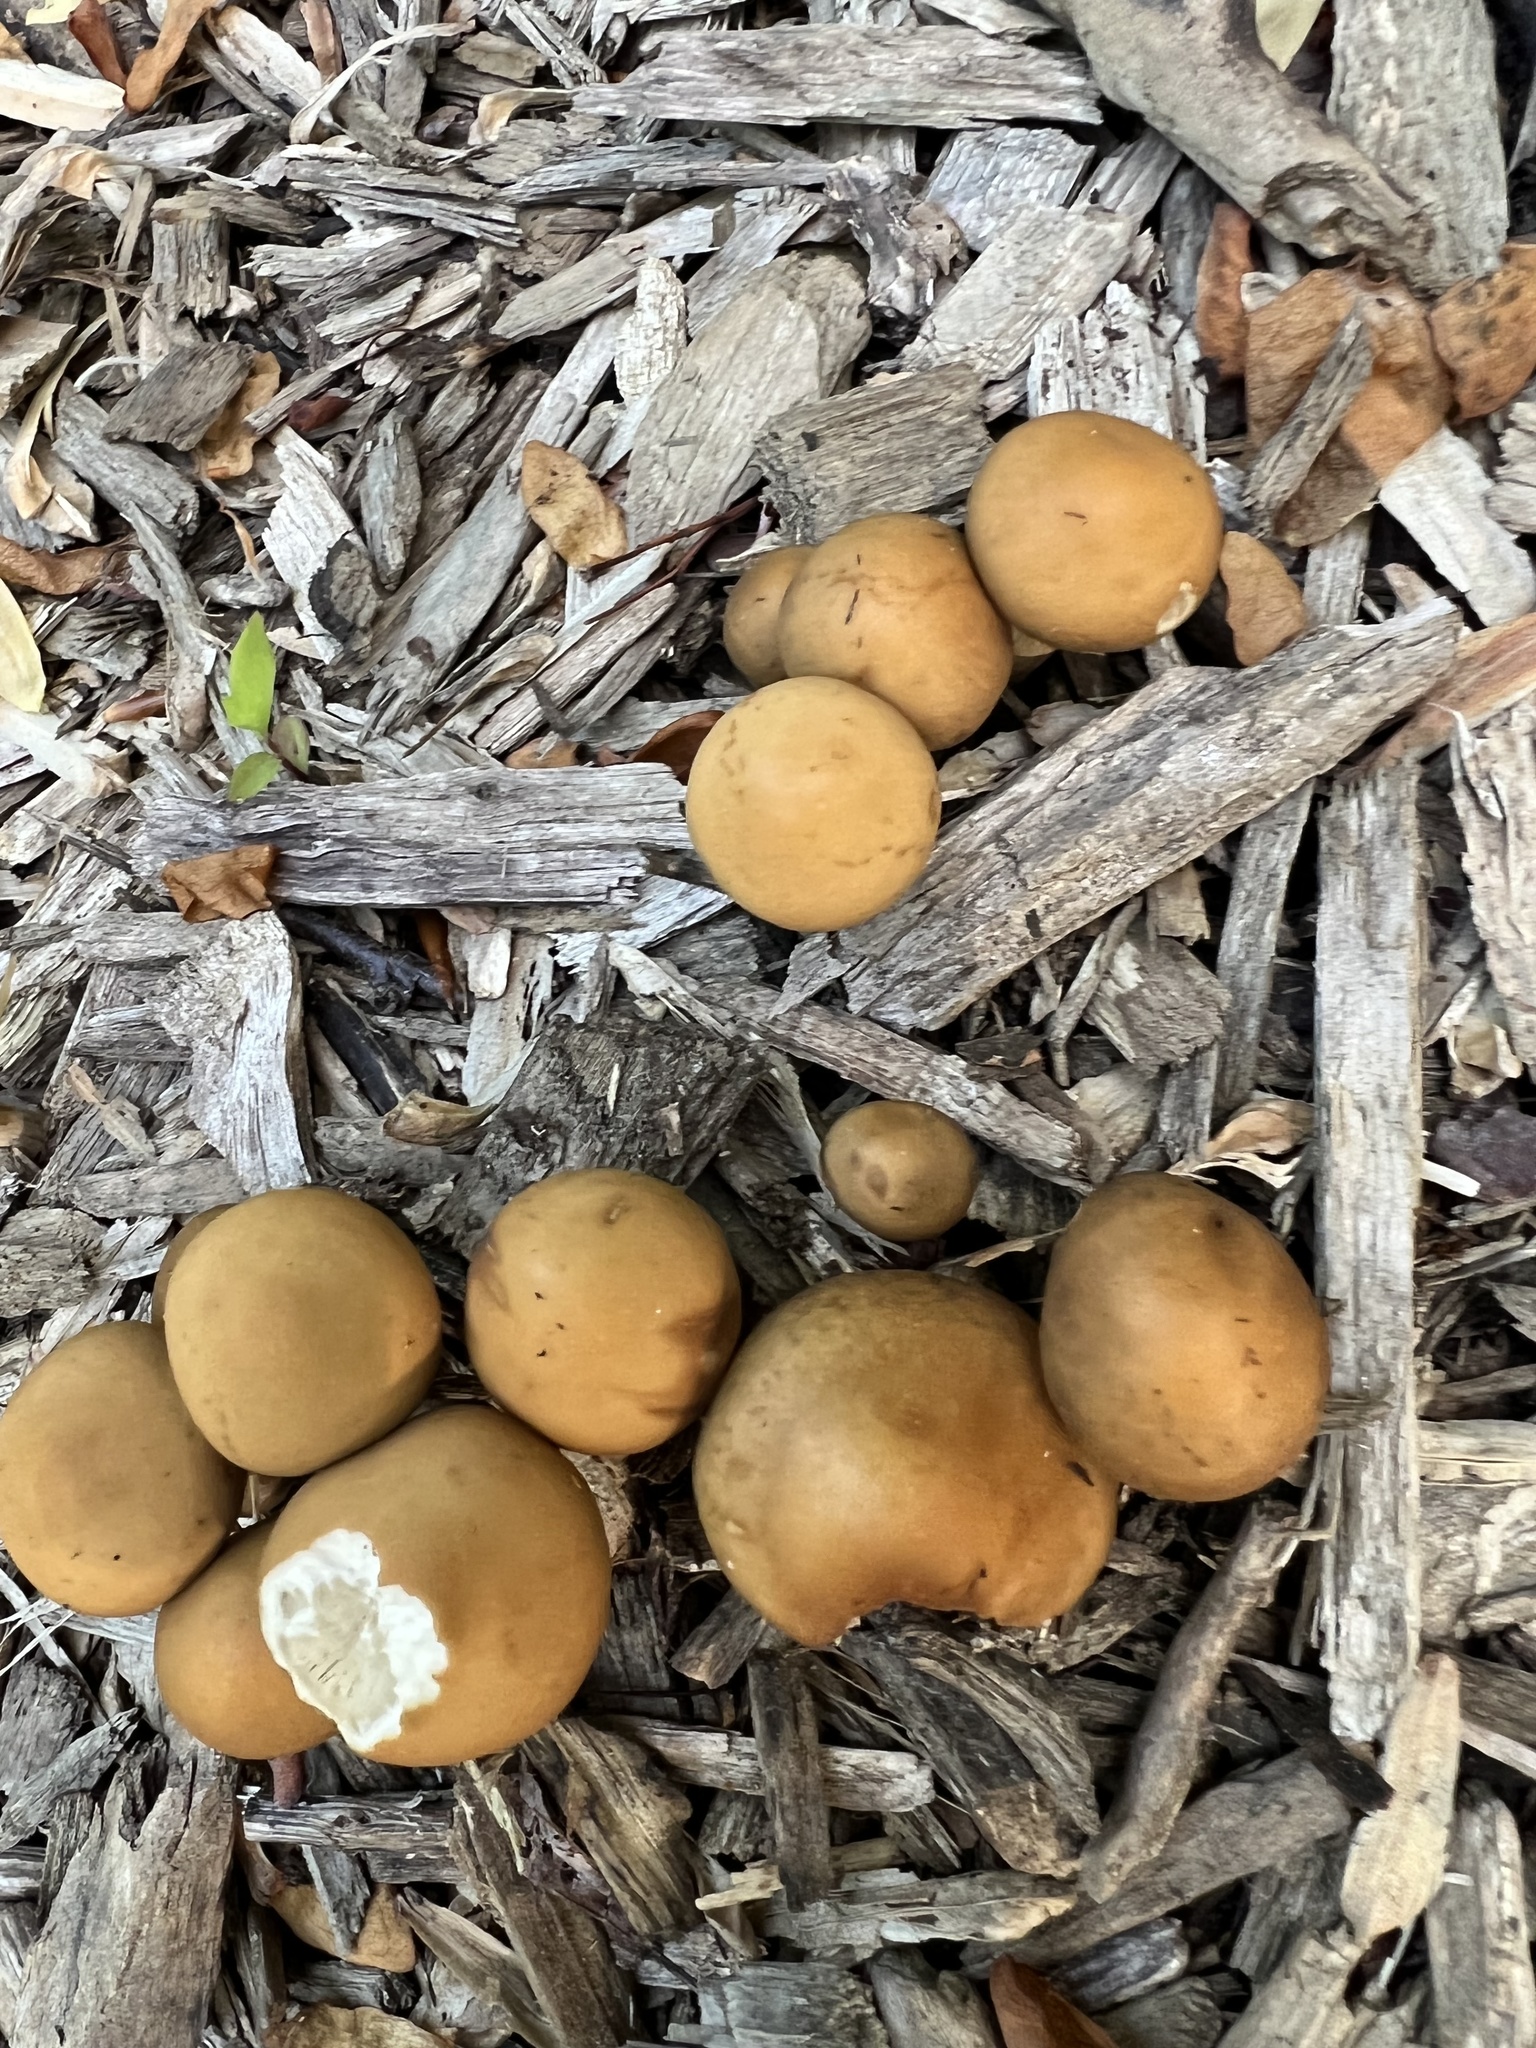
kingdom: Fungi
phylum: Basidiomycota
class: Agaricomycetes
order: Agaricales
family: Strophariaceae
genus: Agrocybe
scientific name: Agrocybe praecox
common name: Spring fieldcap
